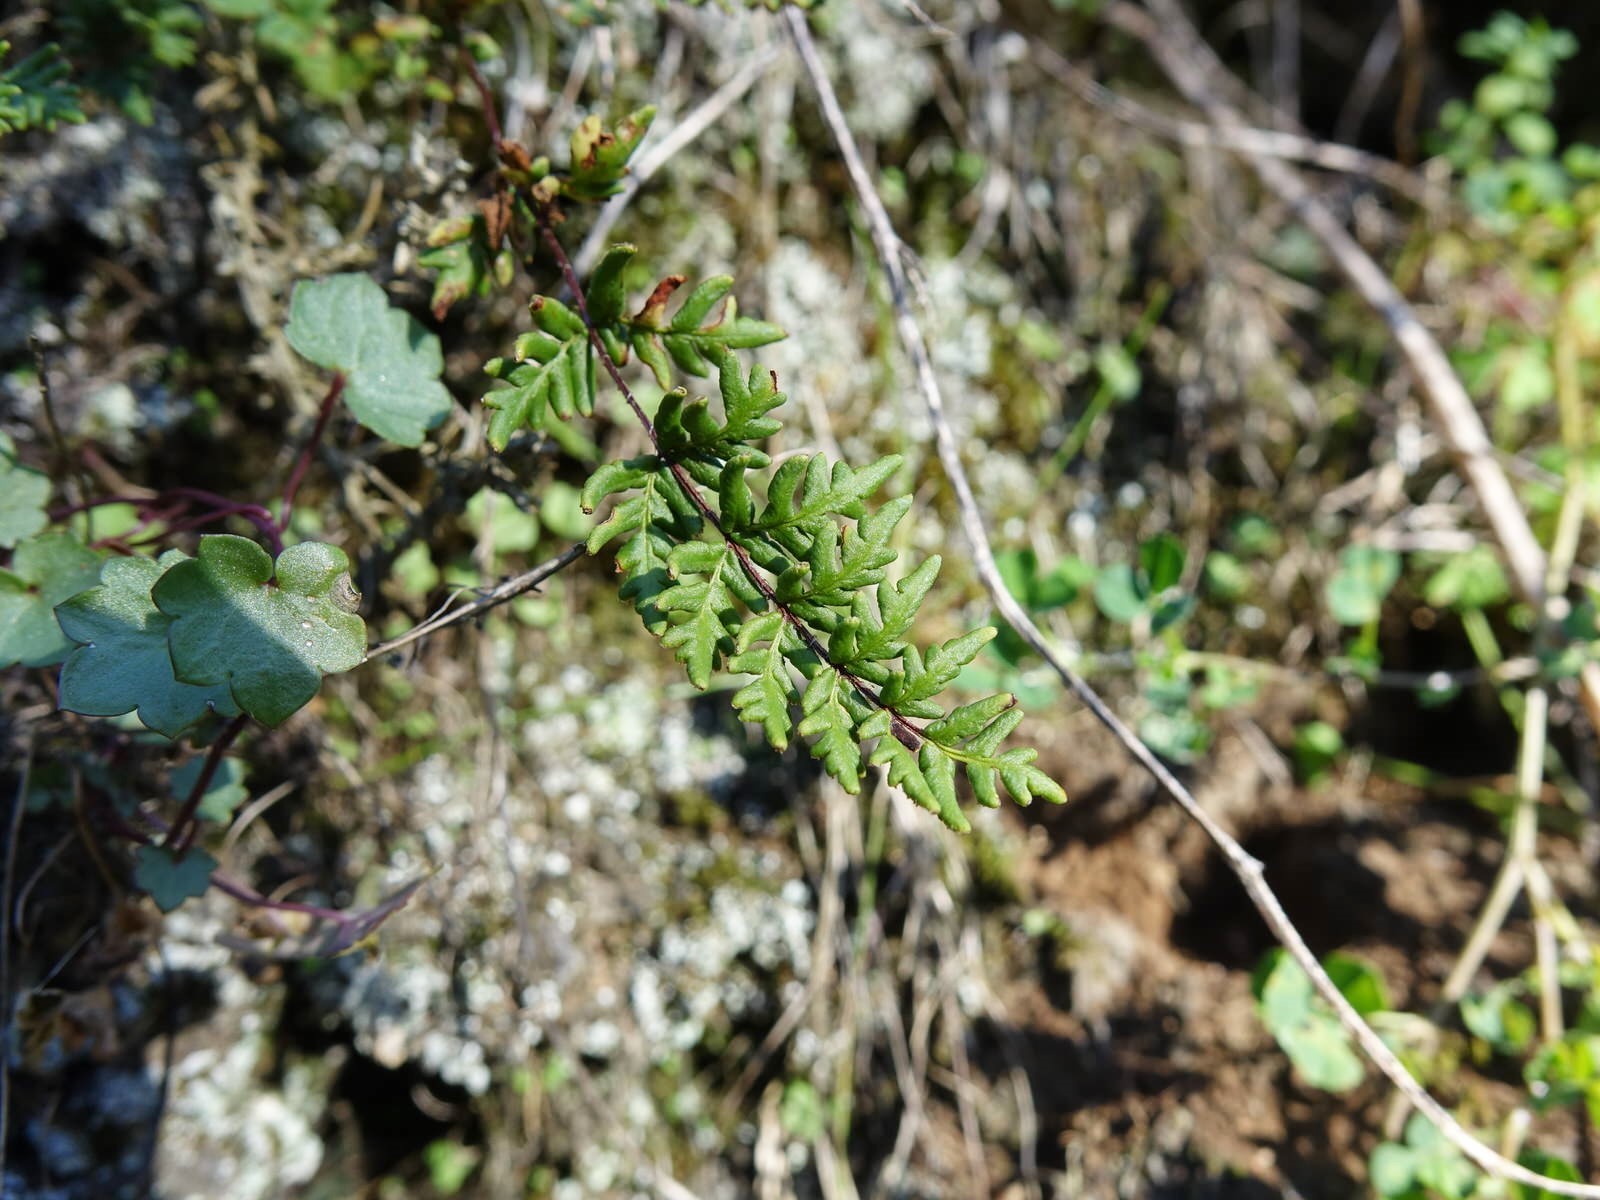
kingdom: Plantae
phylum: Tracheophyta
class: Polypodiopsida
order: Polypodiales
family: Pteridaceae
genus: Cheilanthes
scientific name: Cheilanthes sieberi
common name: Mulga fern
